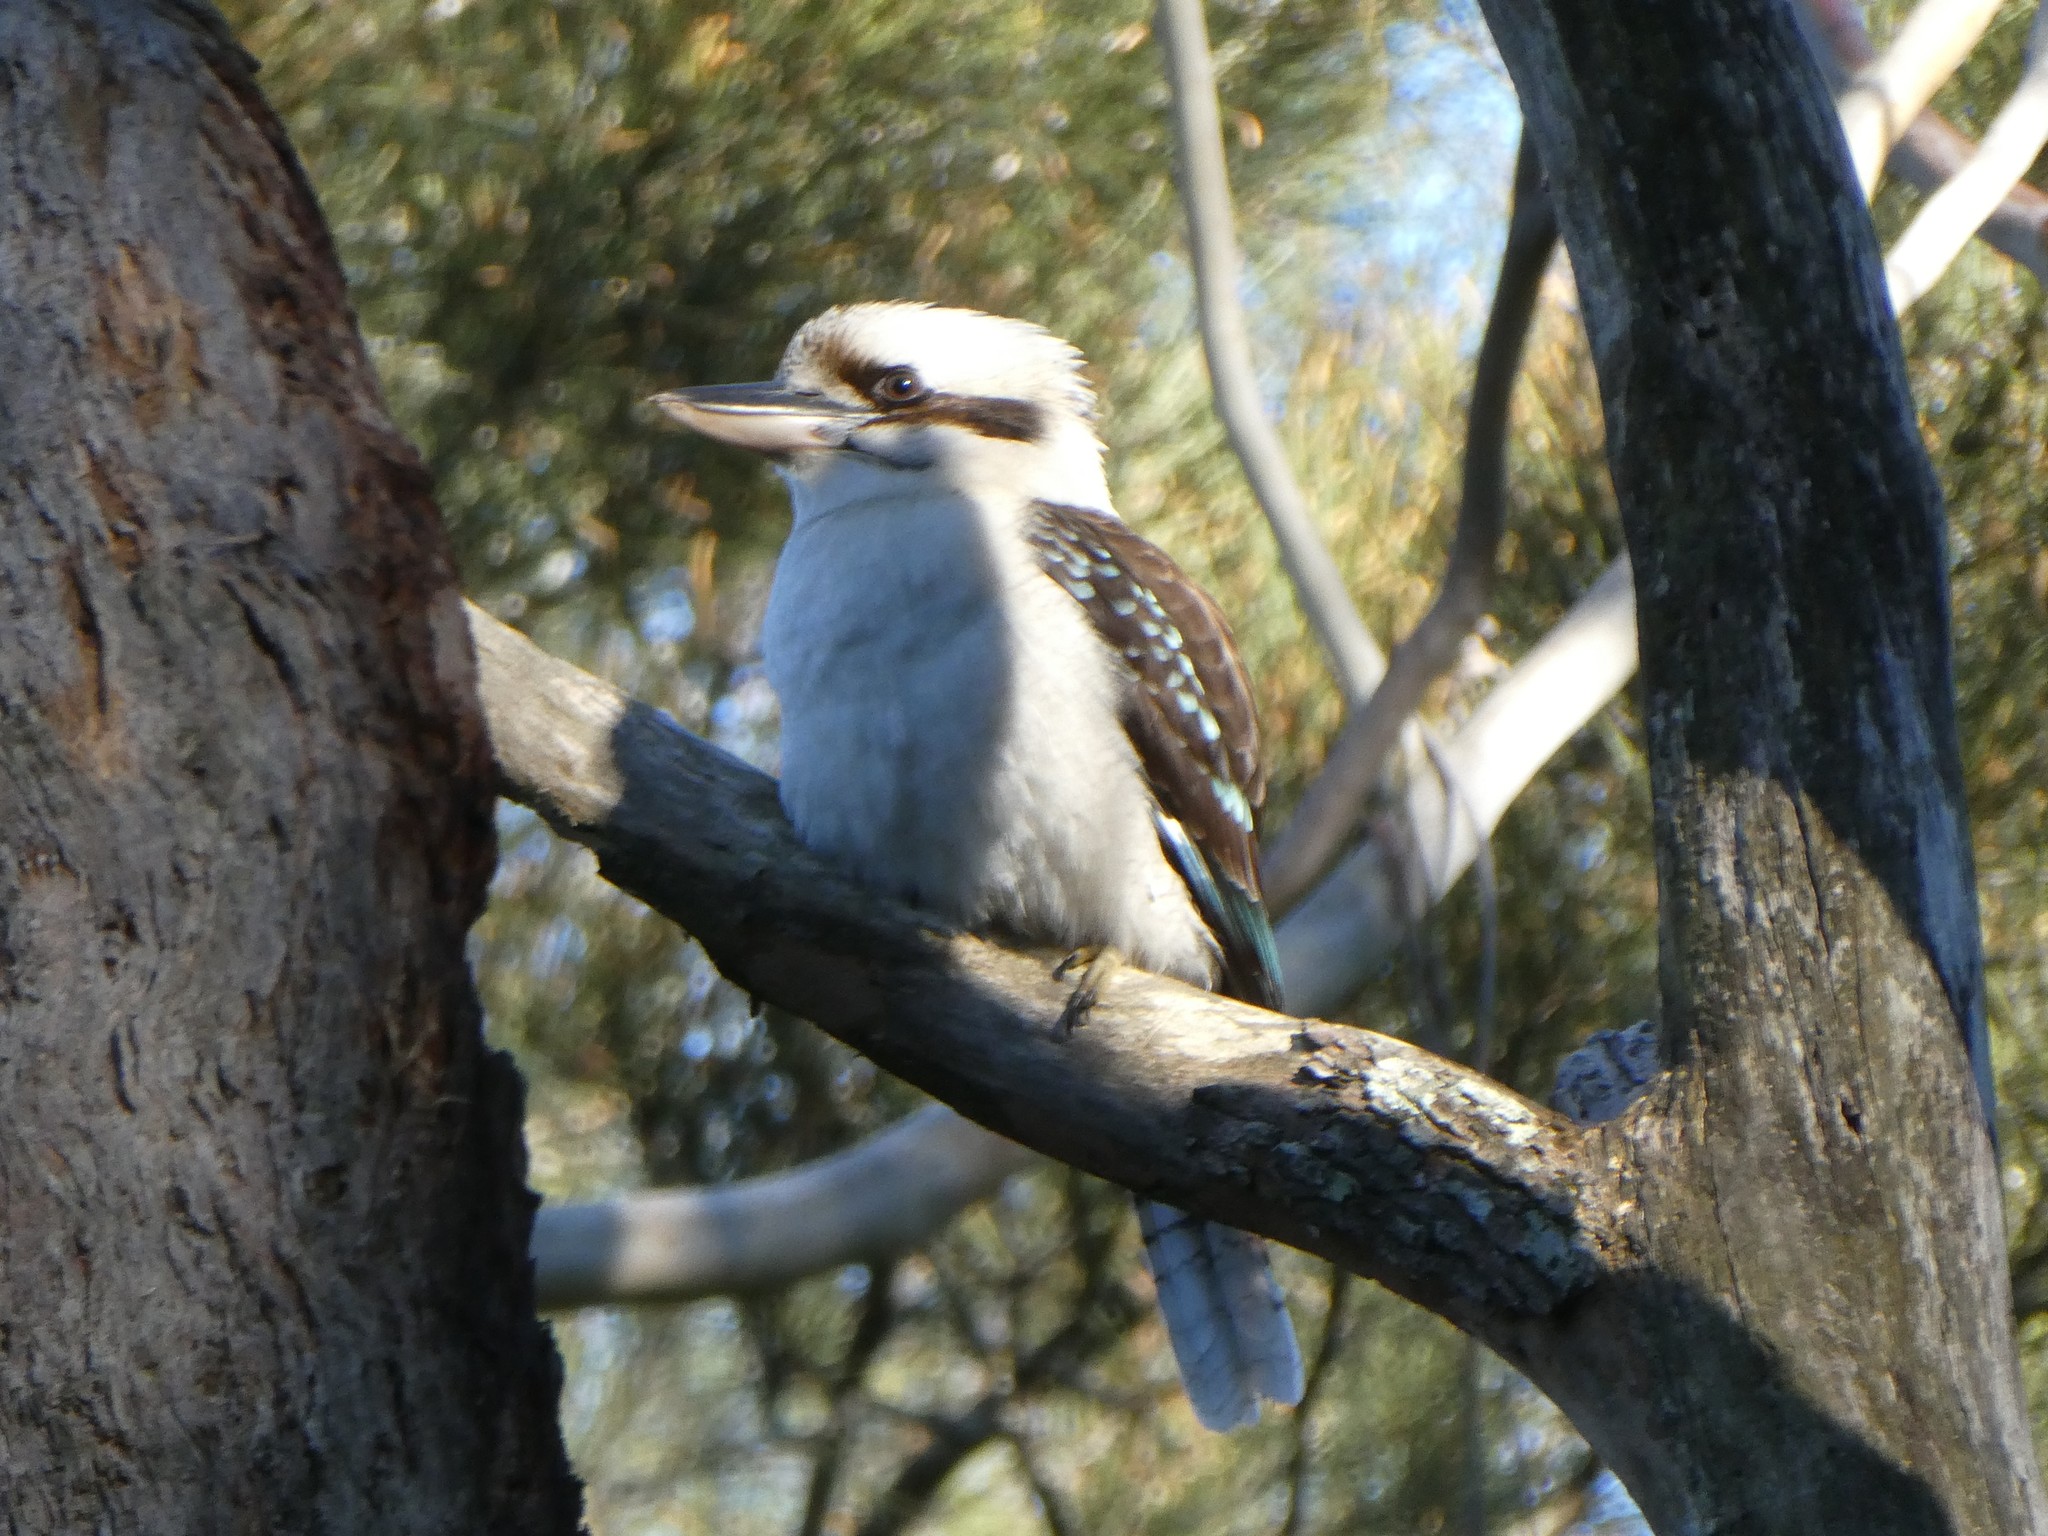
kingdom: Animalia
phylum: Chordata
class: Aves
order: Coraciiformes
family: Alcedinidae
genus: Dacelo
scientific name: Dacelo novaeguineae
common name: Laughing kookaburra
